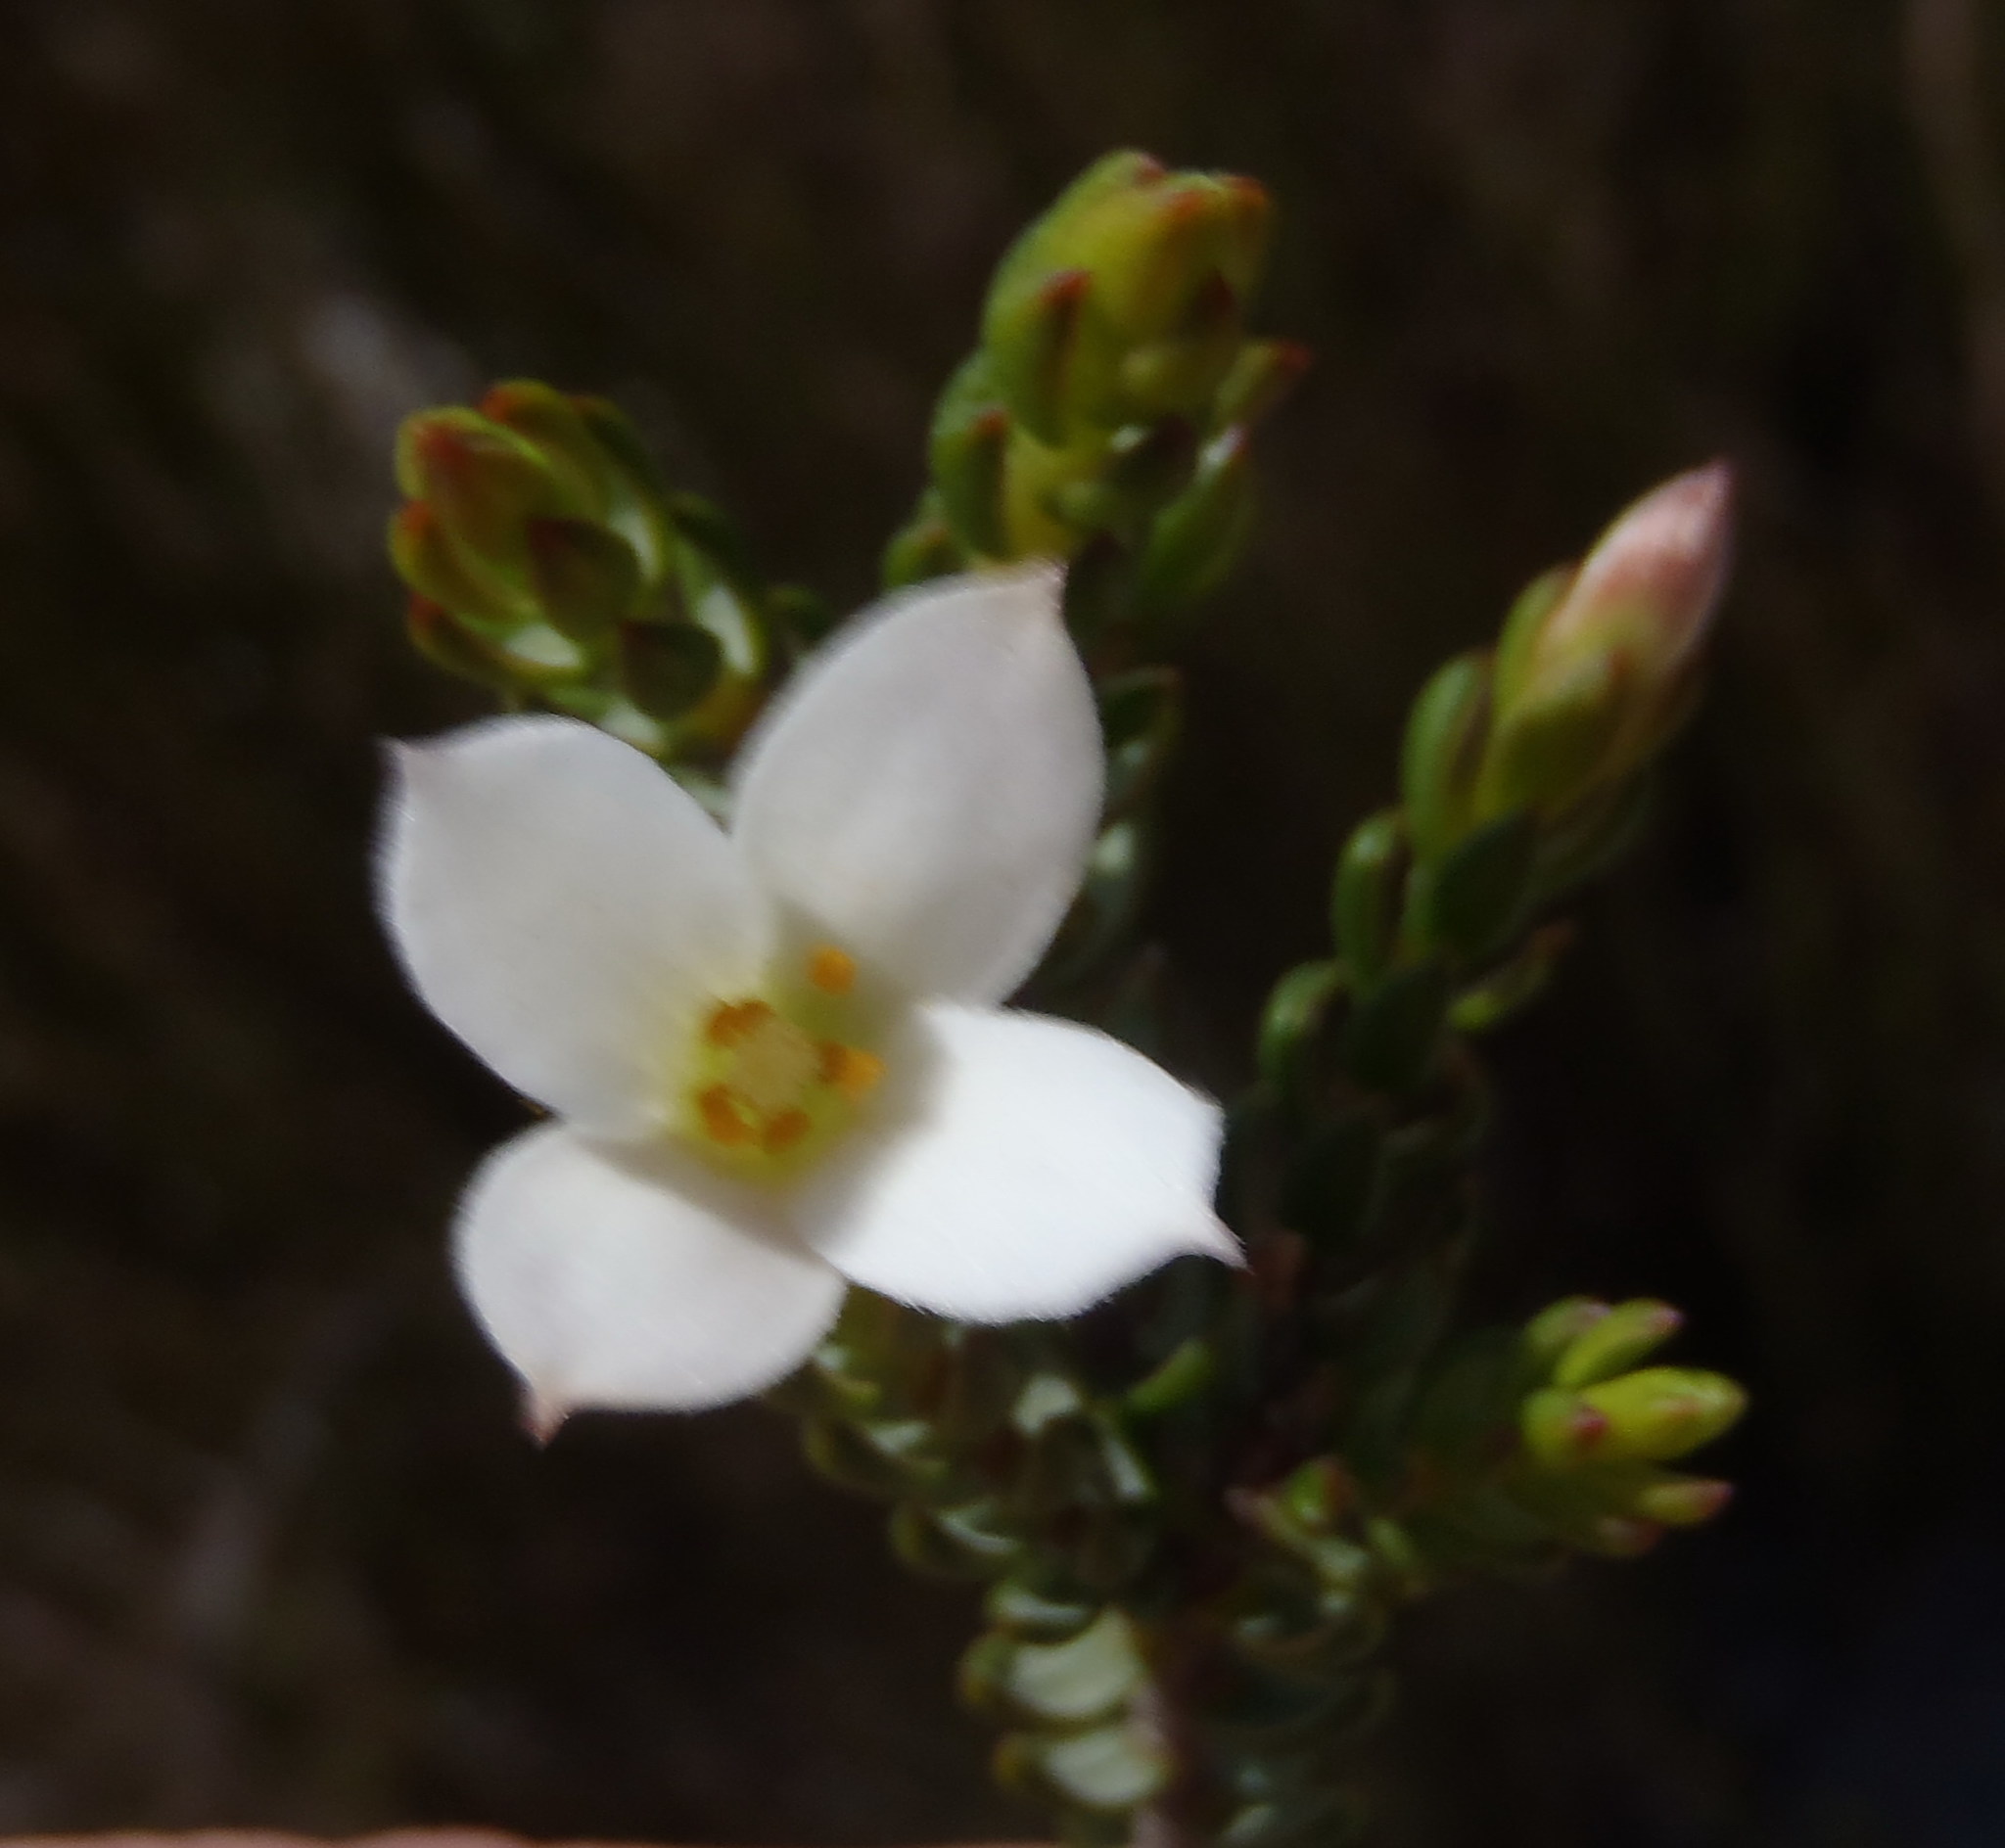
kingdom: Plantae
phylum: Tracheophyta
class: Magnoliopsida
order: Malvales
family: Thymelaeaceae
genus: Lachnaea
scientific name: Lachnaea grandiflora
